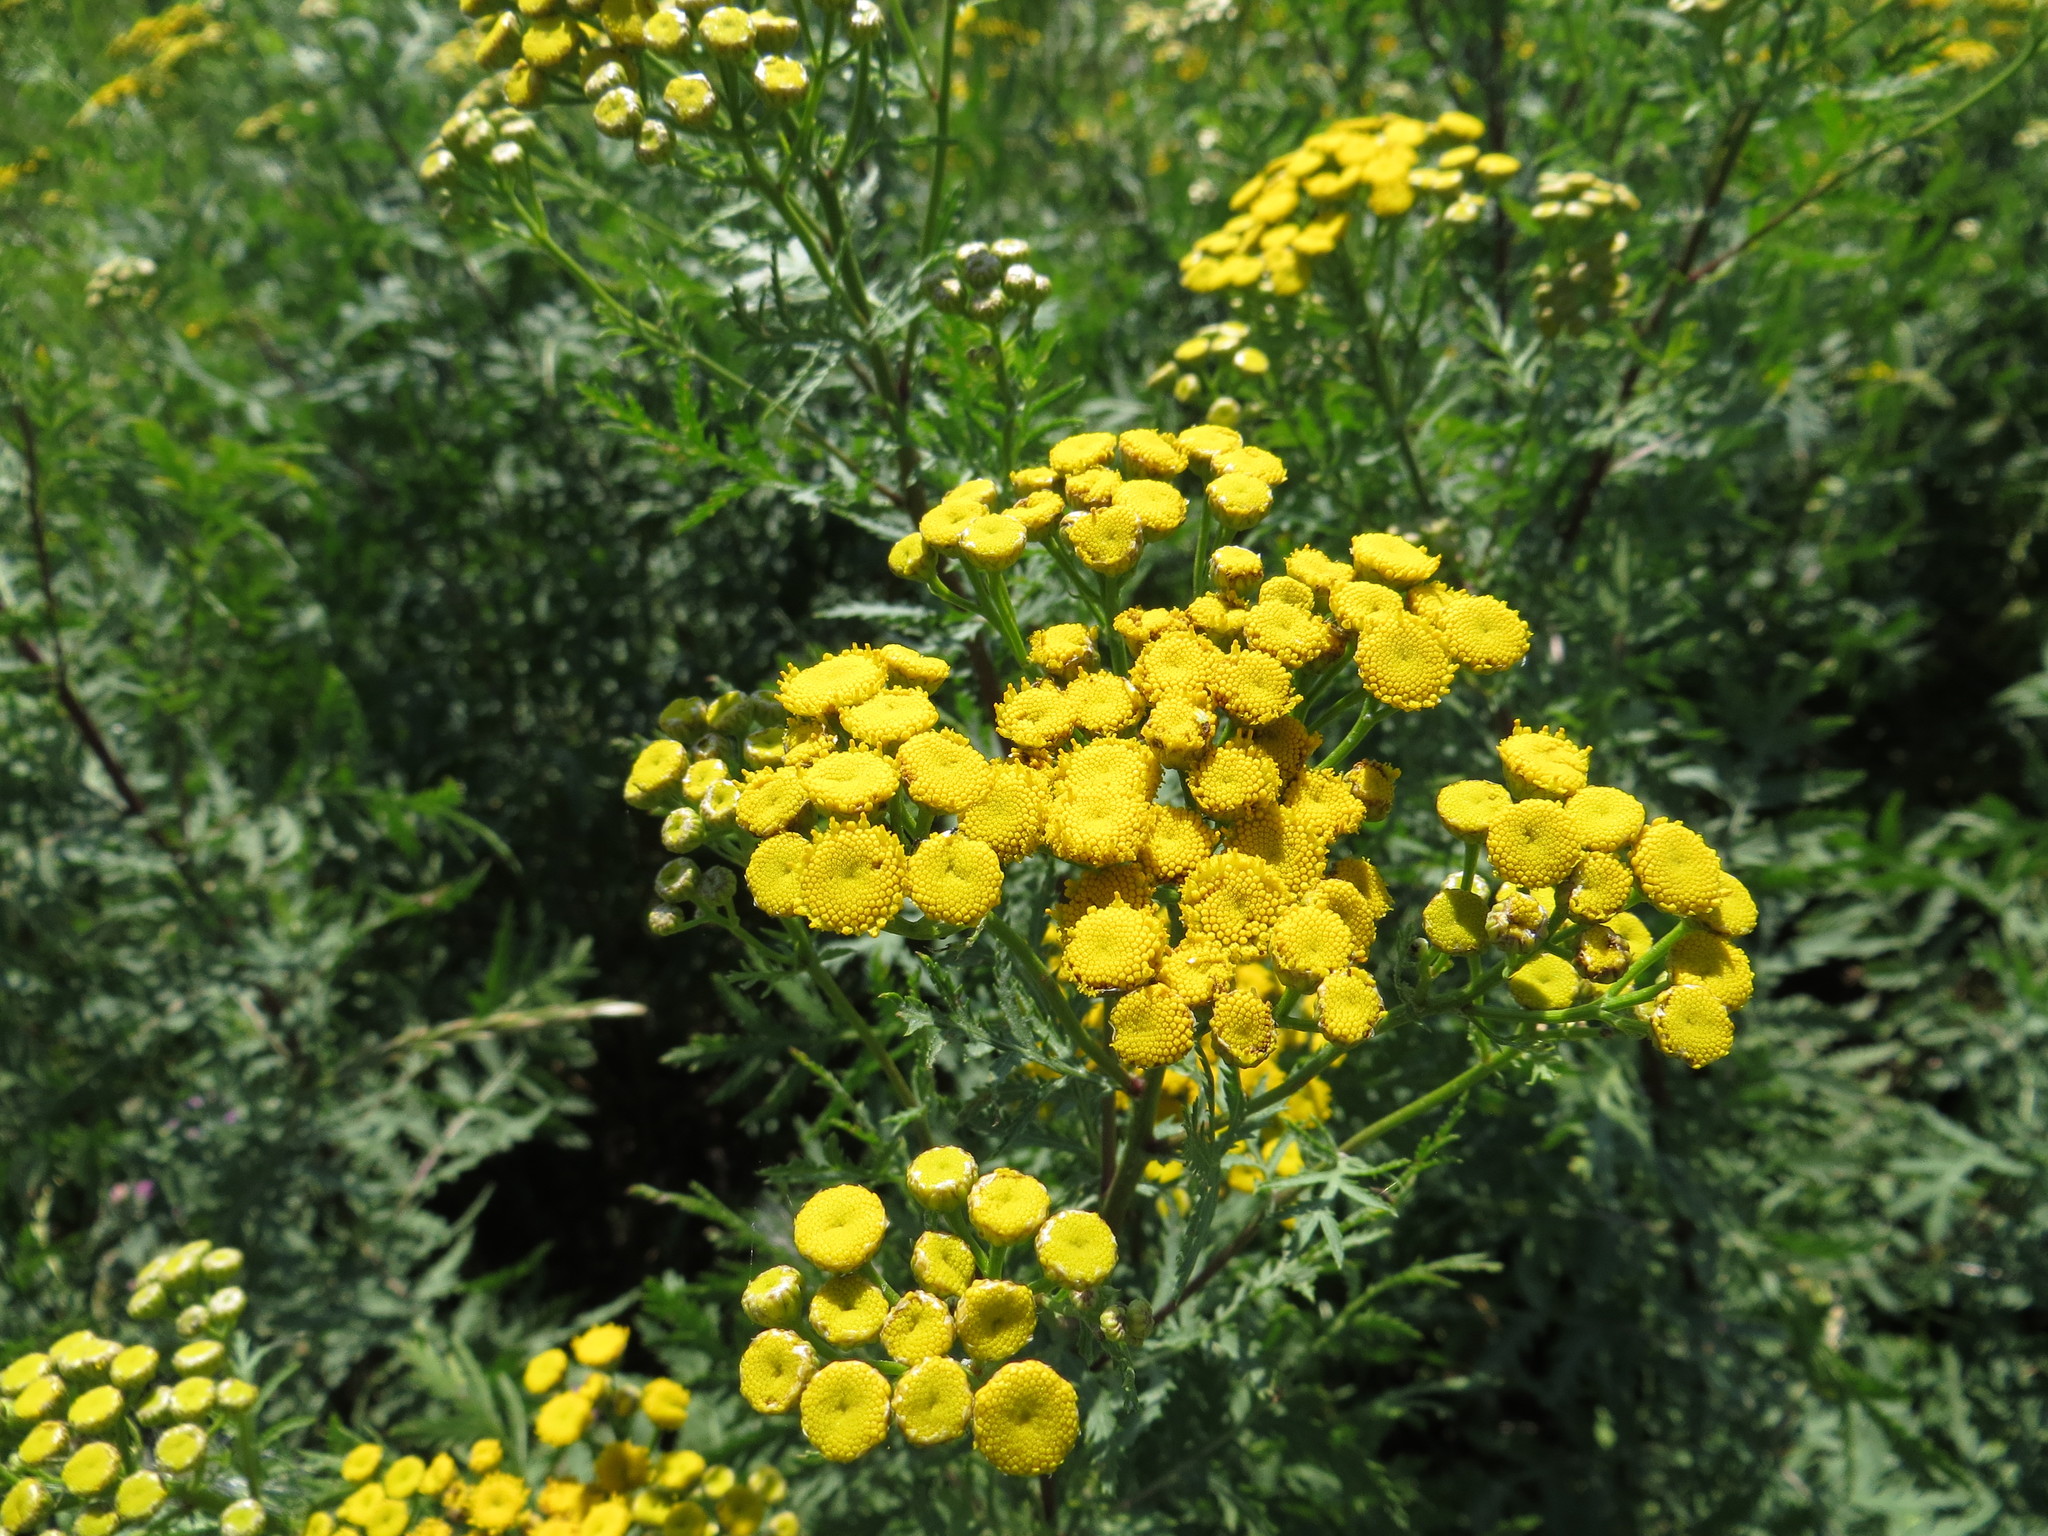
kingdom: Plantae
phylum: Tracheophyta
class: Magnoliopsida
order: Asterales
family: Asteraceae
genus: Tanacetum
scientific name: Tanacetum vulgare
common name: Common tansy
